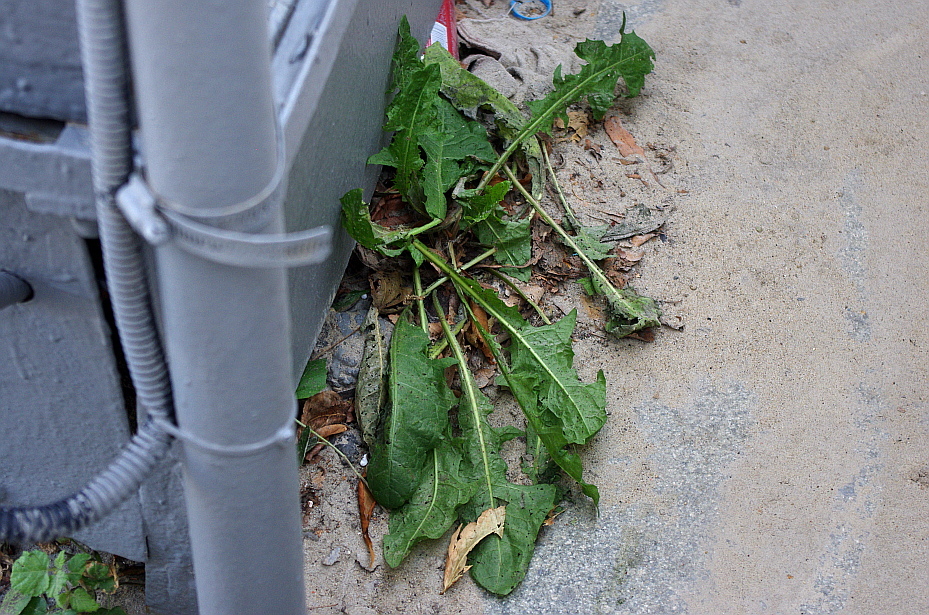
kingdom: Plantae
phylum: Tracheophyta
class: Magnoliopsida
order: Asterales
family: Asteraceae
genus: Taraxacum
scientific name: Taraxacum officinale
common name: Common dandelion
